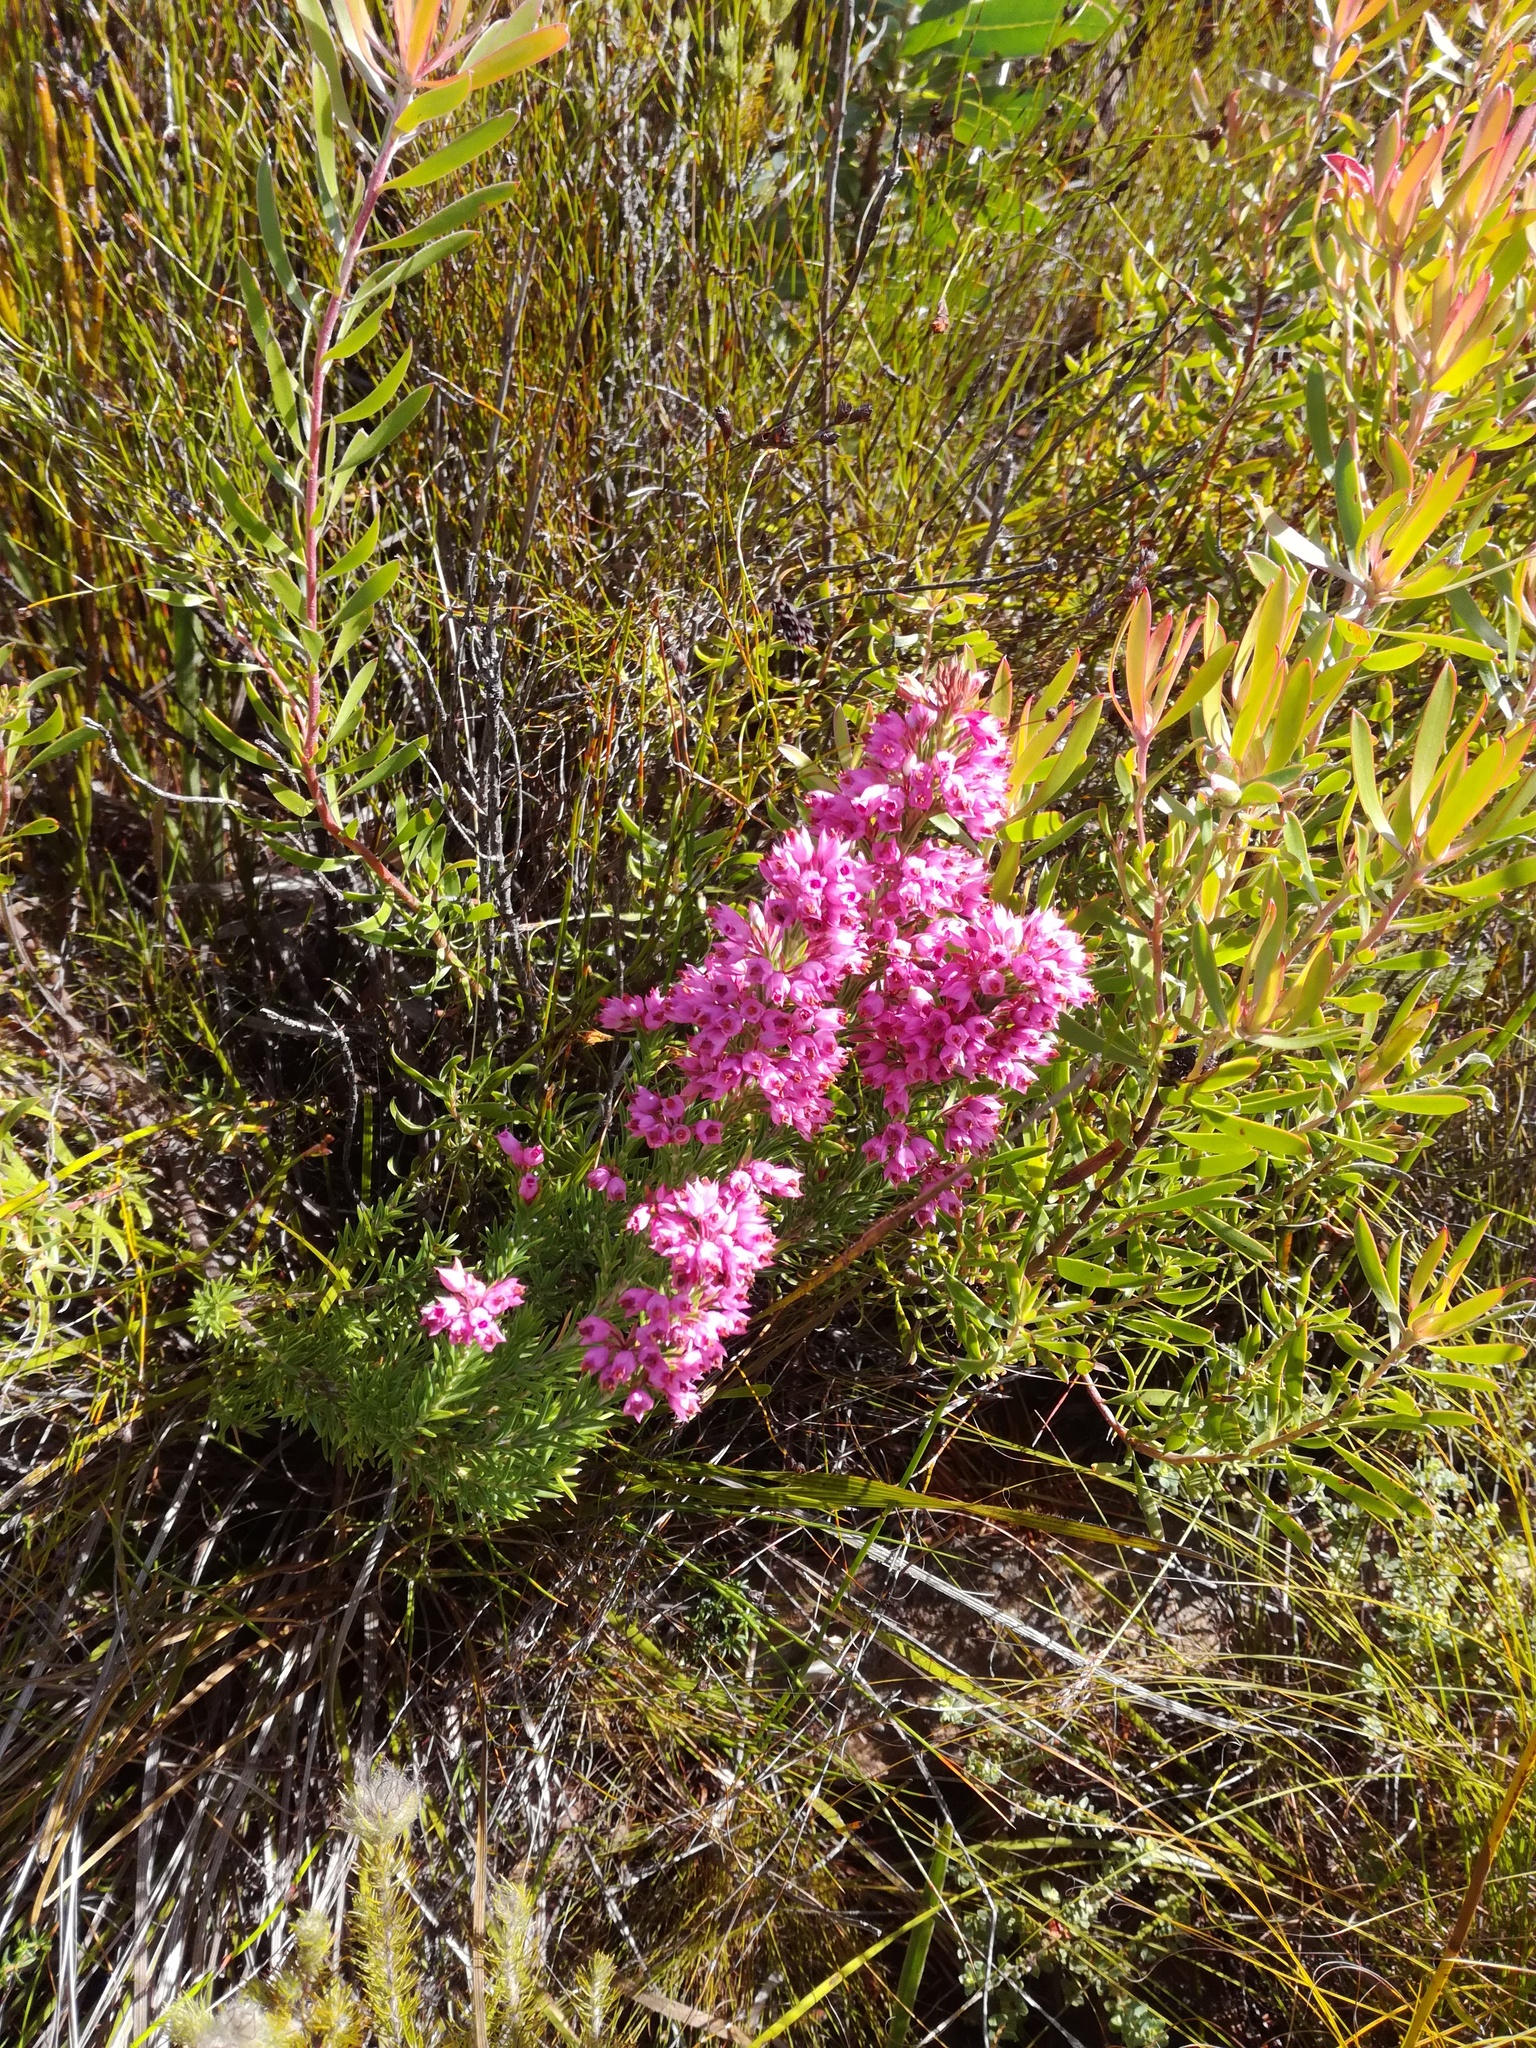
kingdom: Plantae
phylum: Tracheophyta
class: Magnoliopsida
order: Ericales
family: Ericaceae
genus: Erica
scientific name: Erica taxifolia
